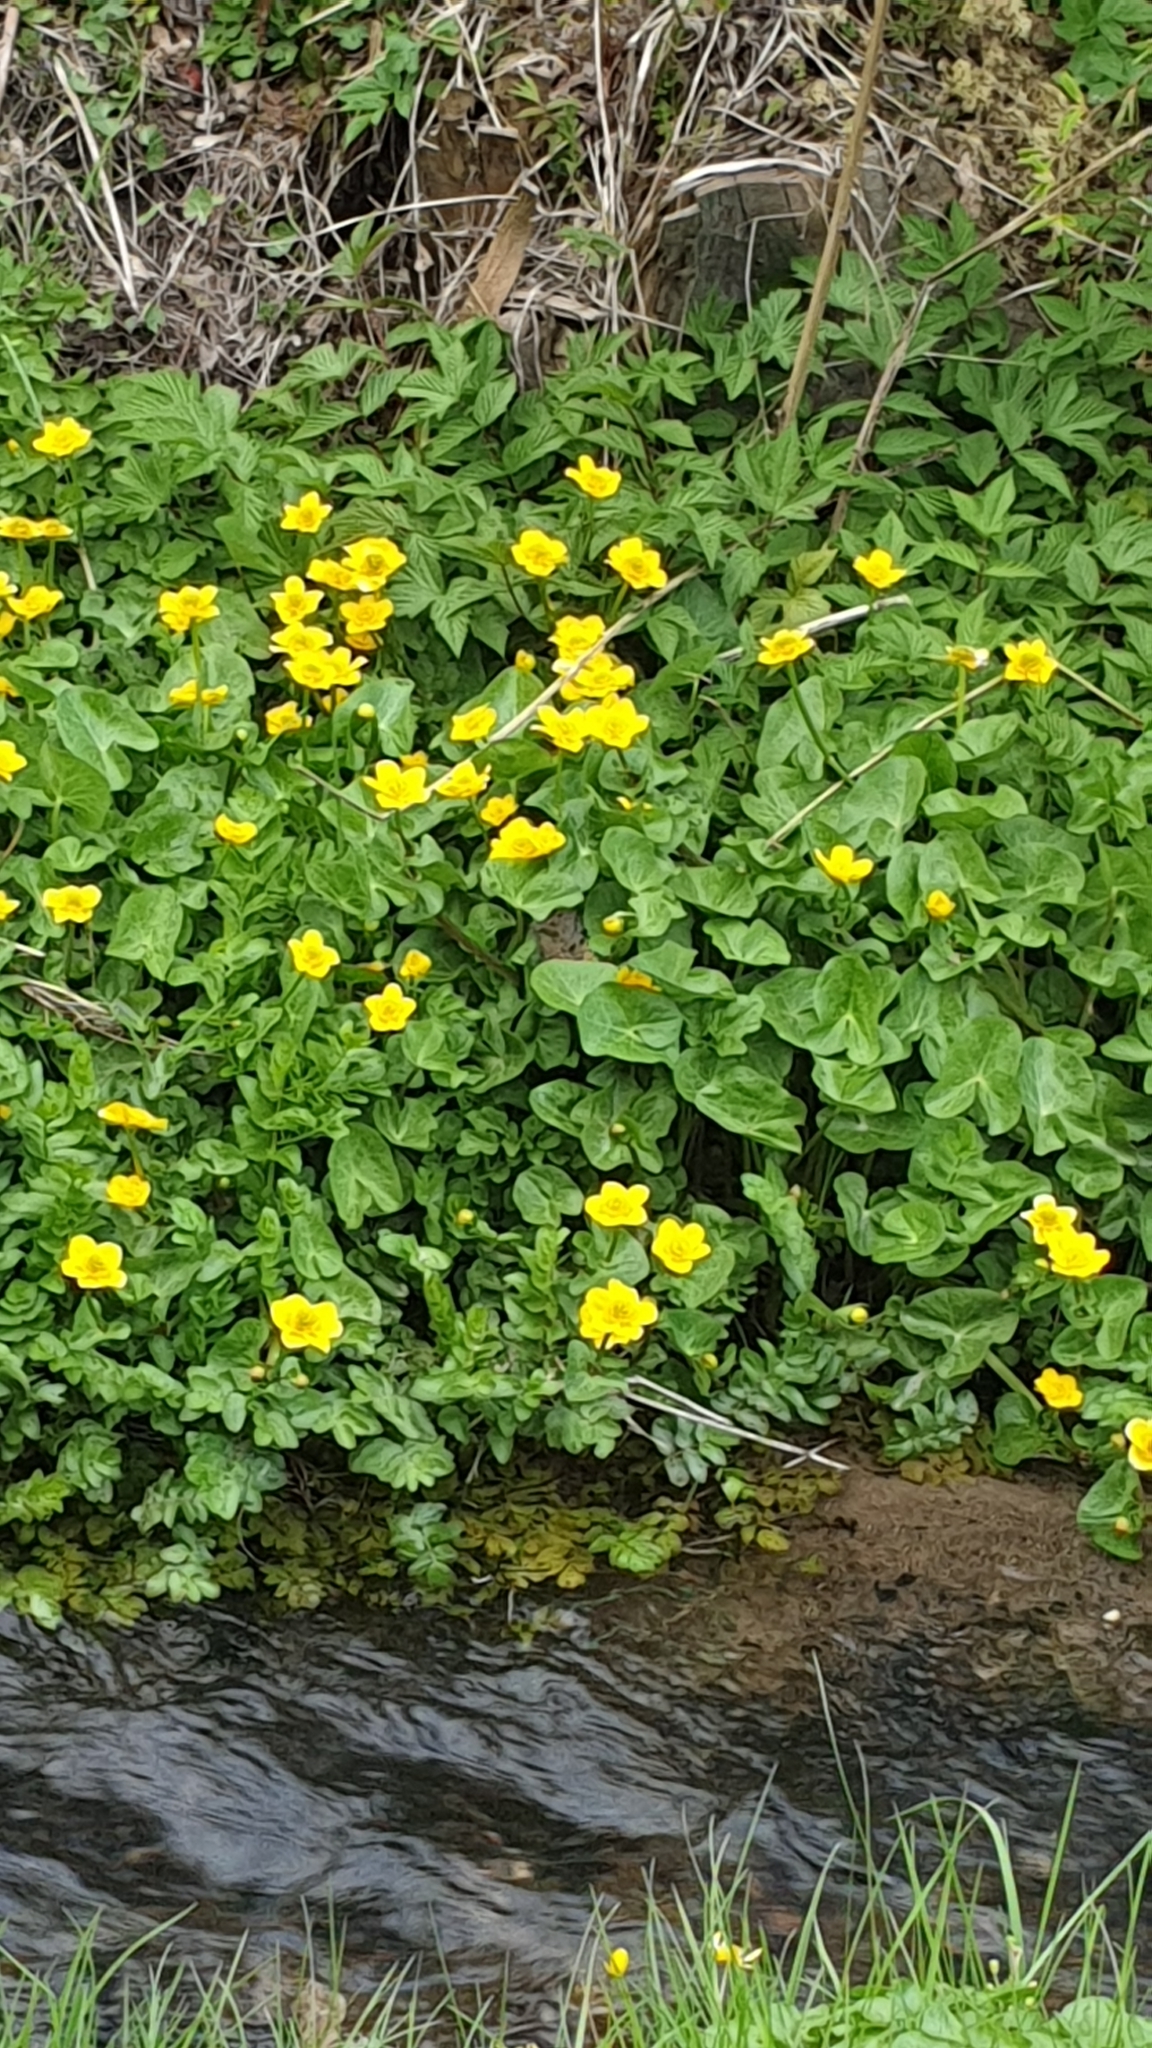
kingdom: Plantae
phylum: Tracheophyta
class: Magnoliopsida
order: Ranunculales
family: Ranunculaceae
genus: Caltha
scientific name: Caltha palustris
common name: Marsh marigold
